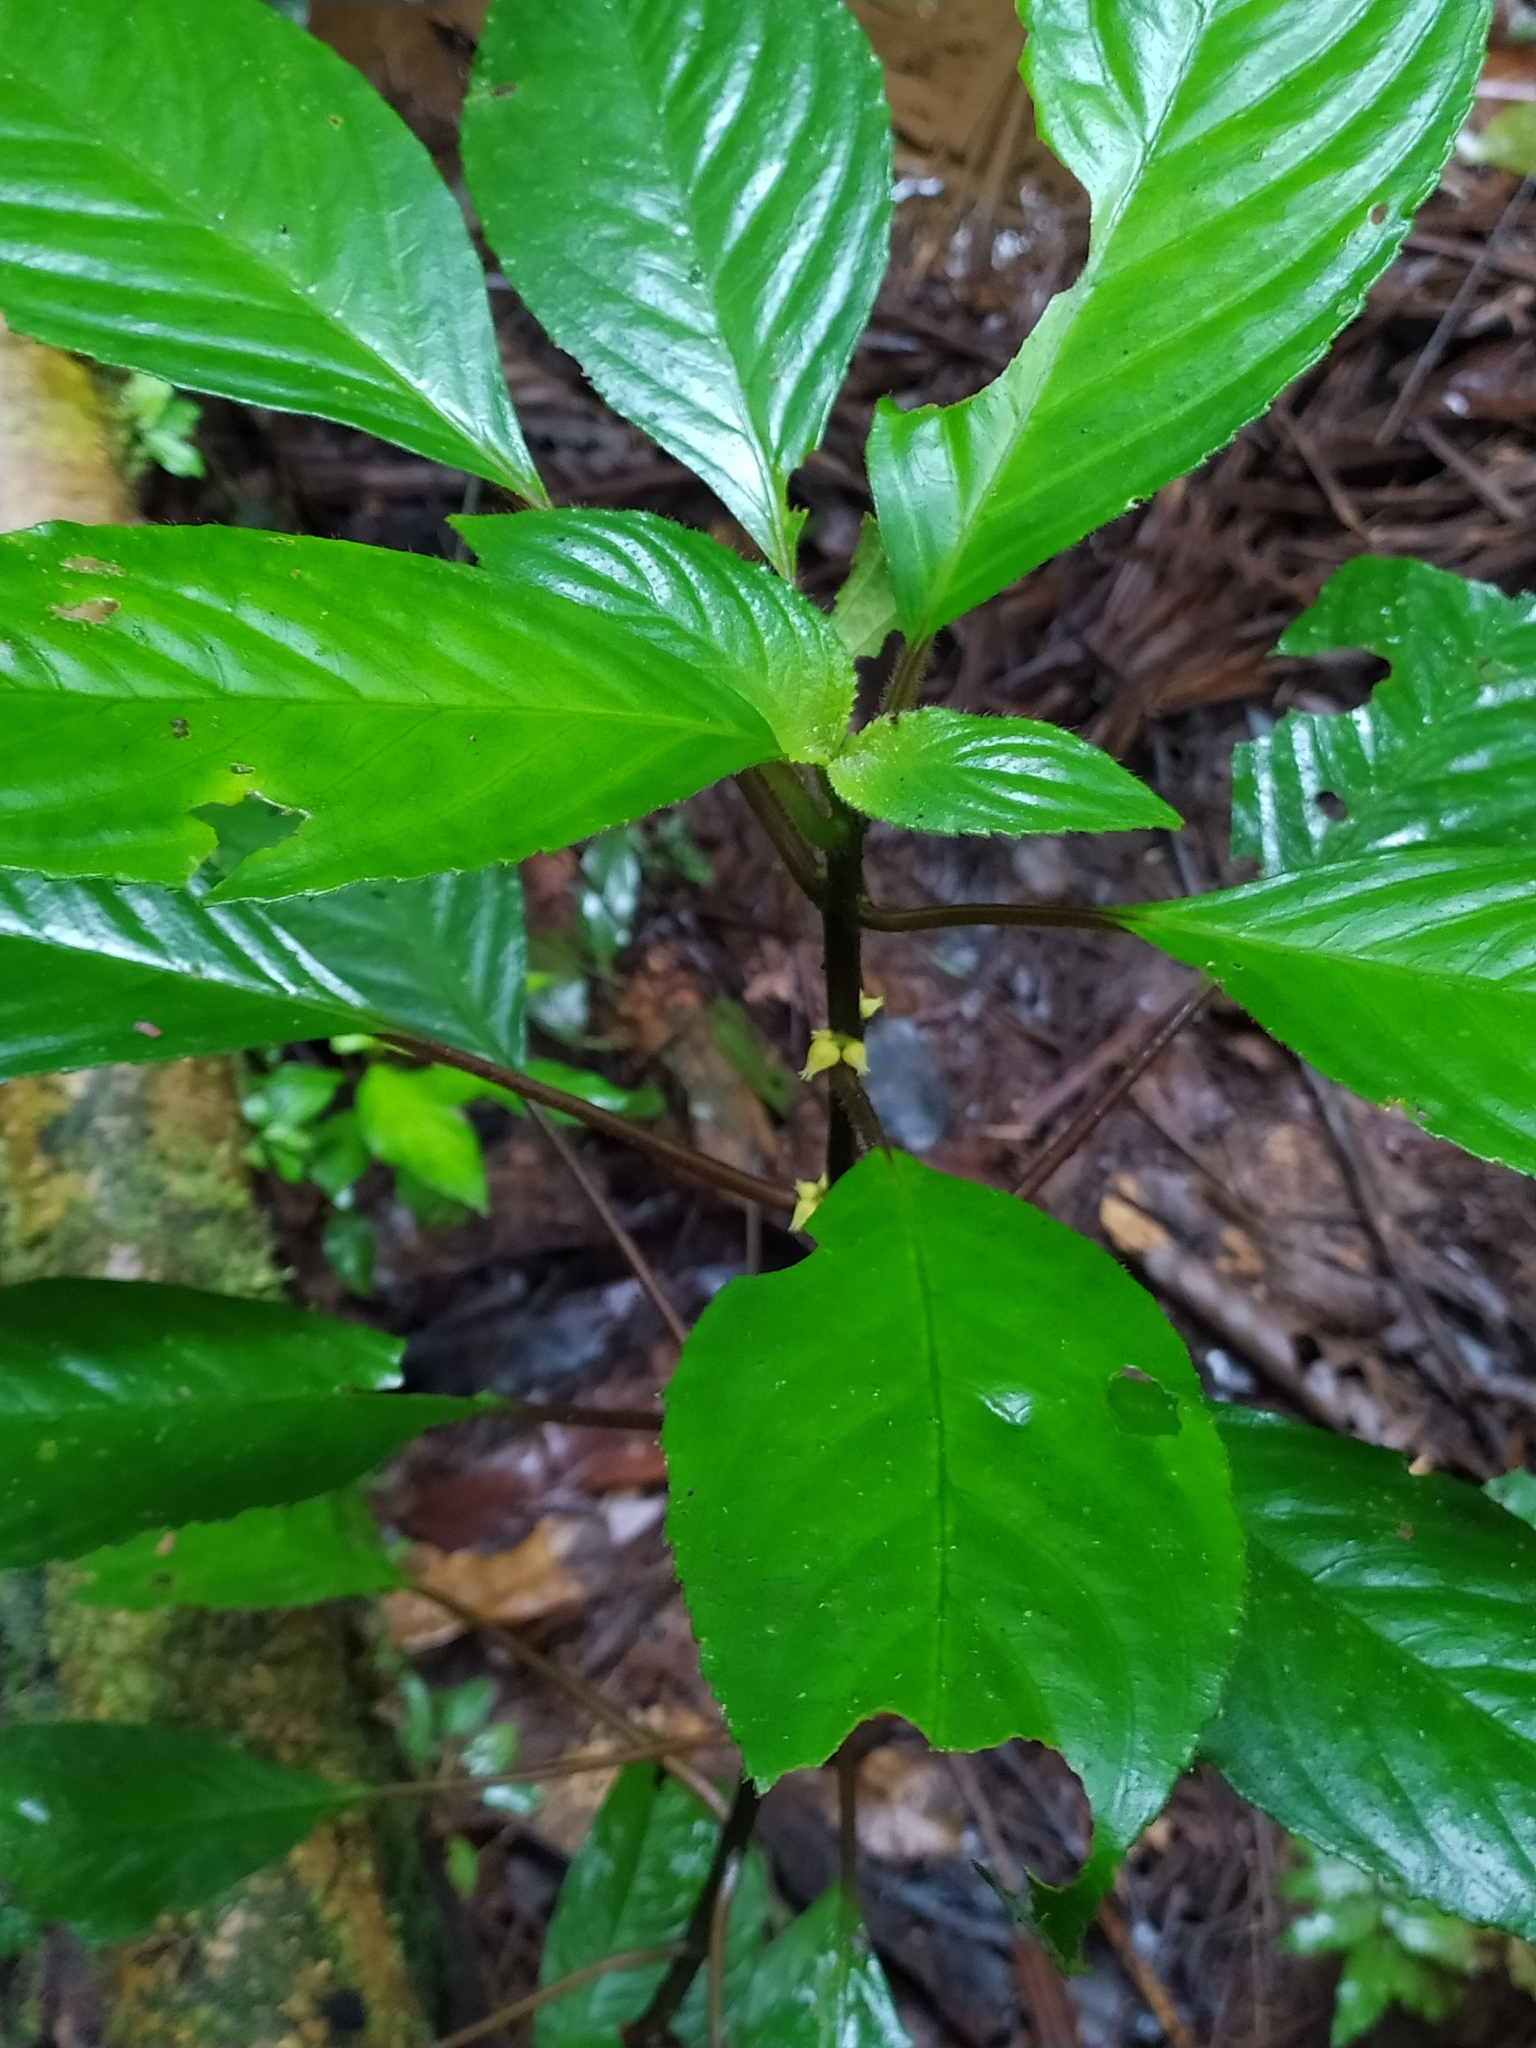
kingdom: Plantae
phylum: Tracheophyta
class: Magnoliopsida
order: Lamiales
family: Gesneriaceae
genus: Besleria
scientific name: Besleria insolita
